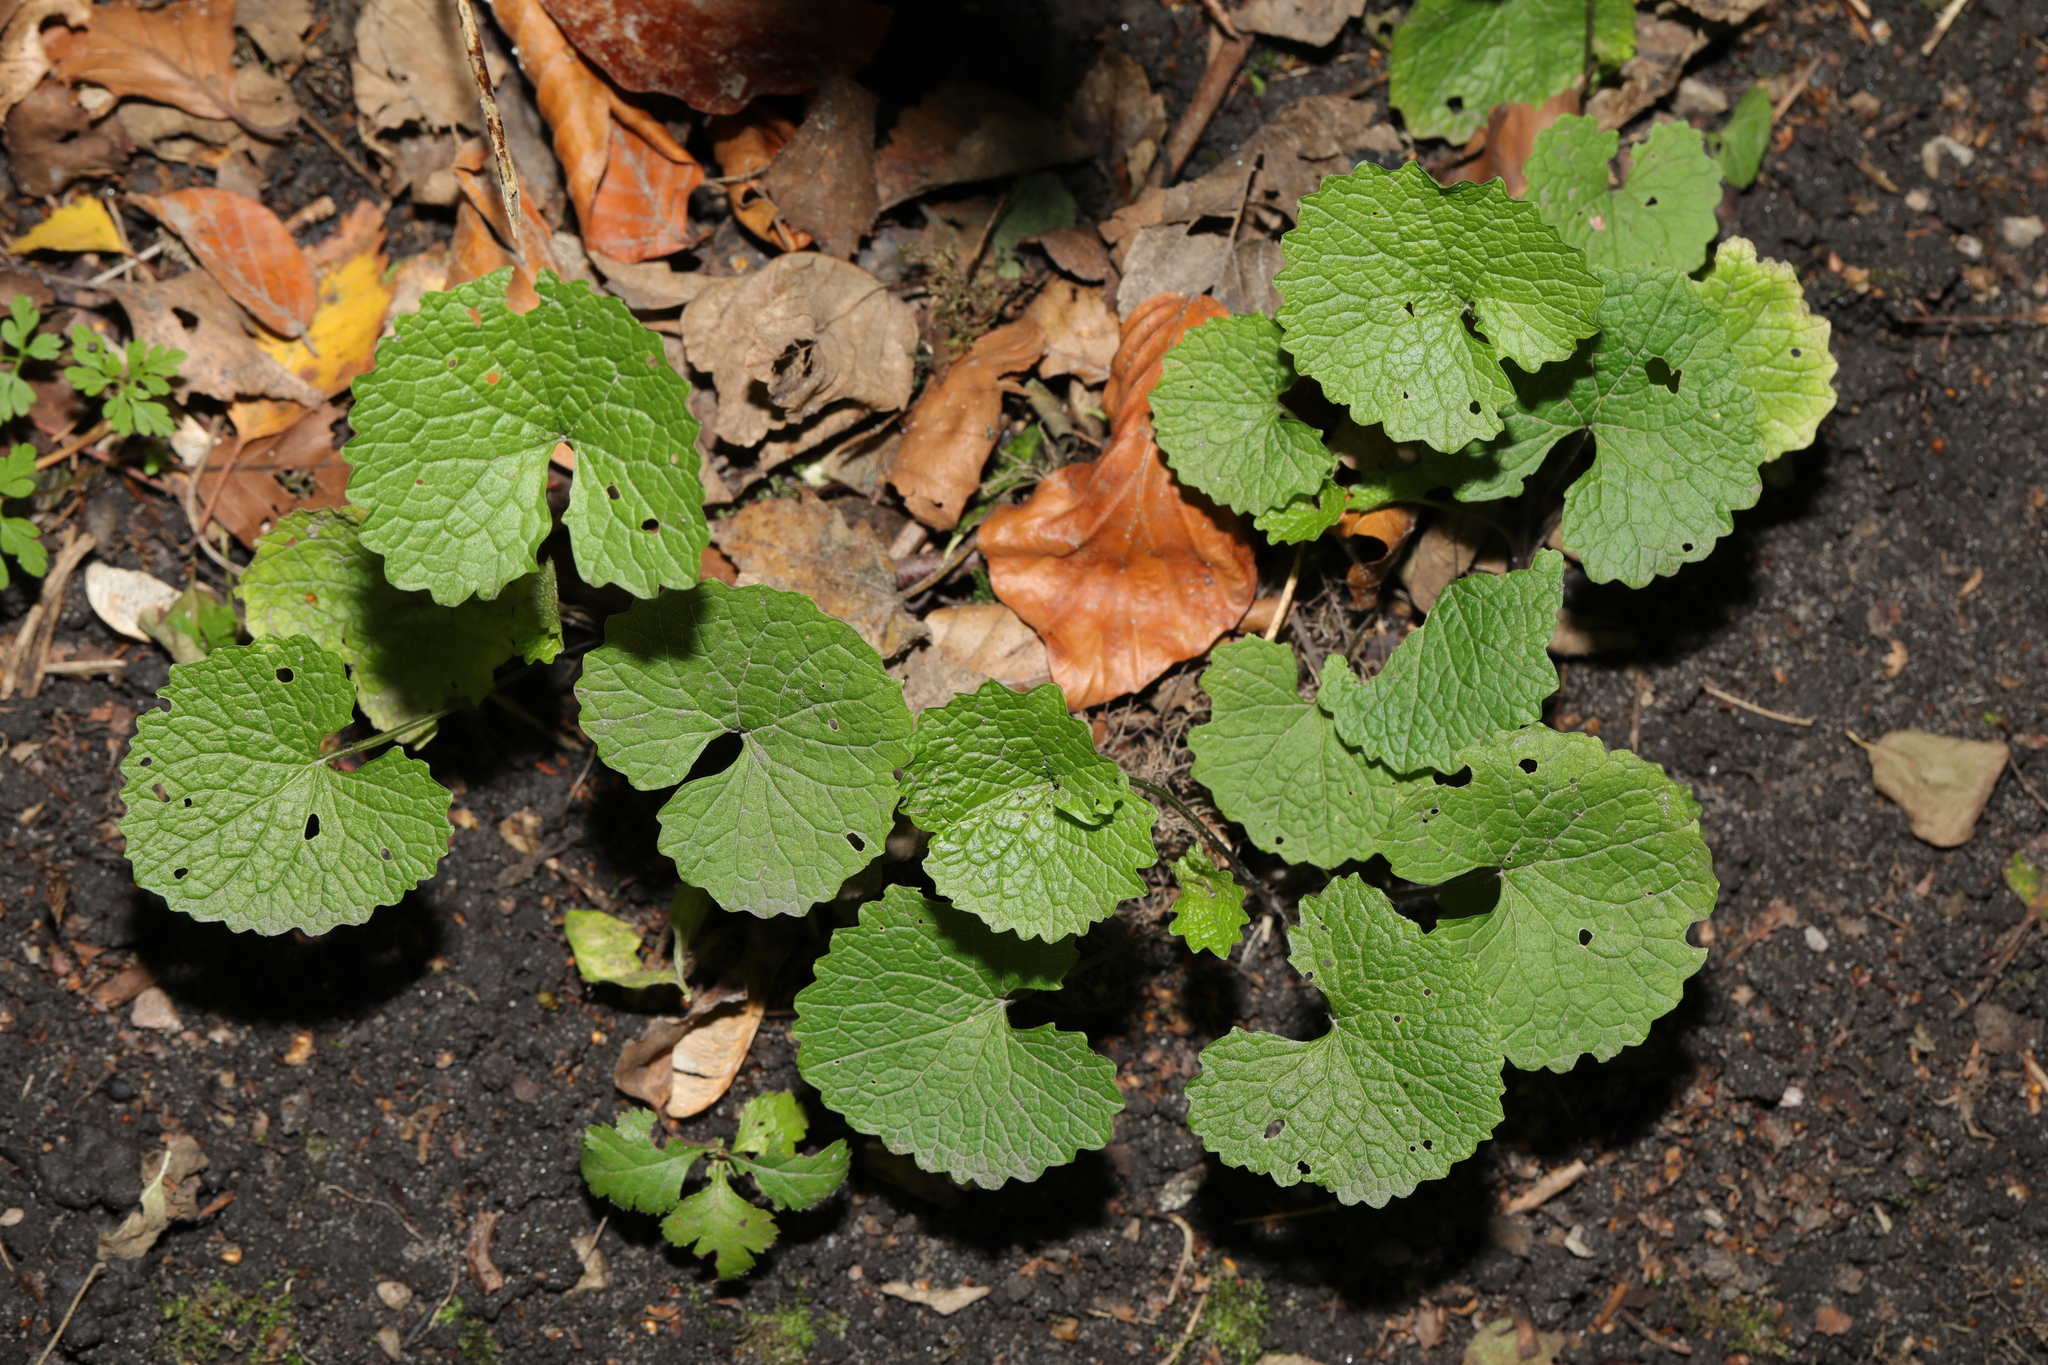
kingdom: Plantae
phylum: Tracheophyta
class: Magnoliopsida
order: Brassicales
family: Brassicaceae
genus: Alliaria
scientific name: Alliaria petiolata
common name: Garlic mustard
